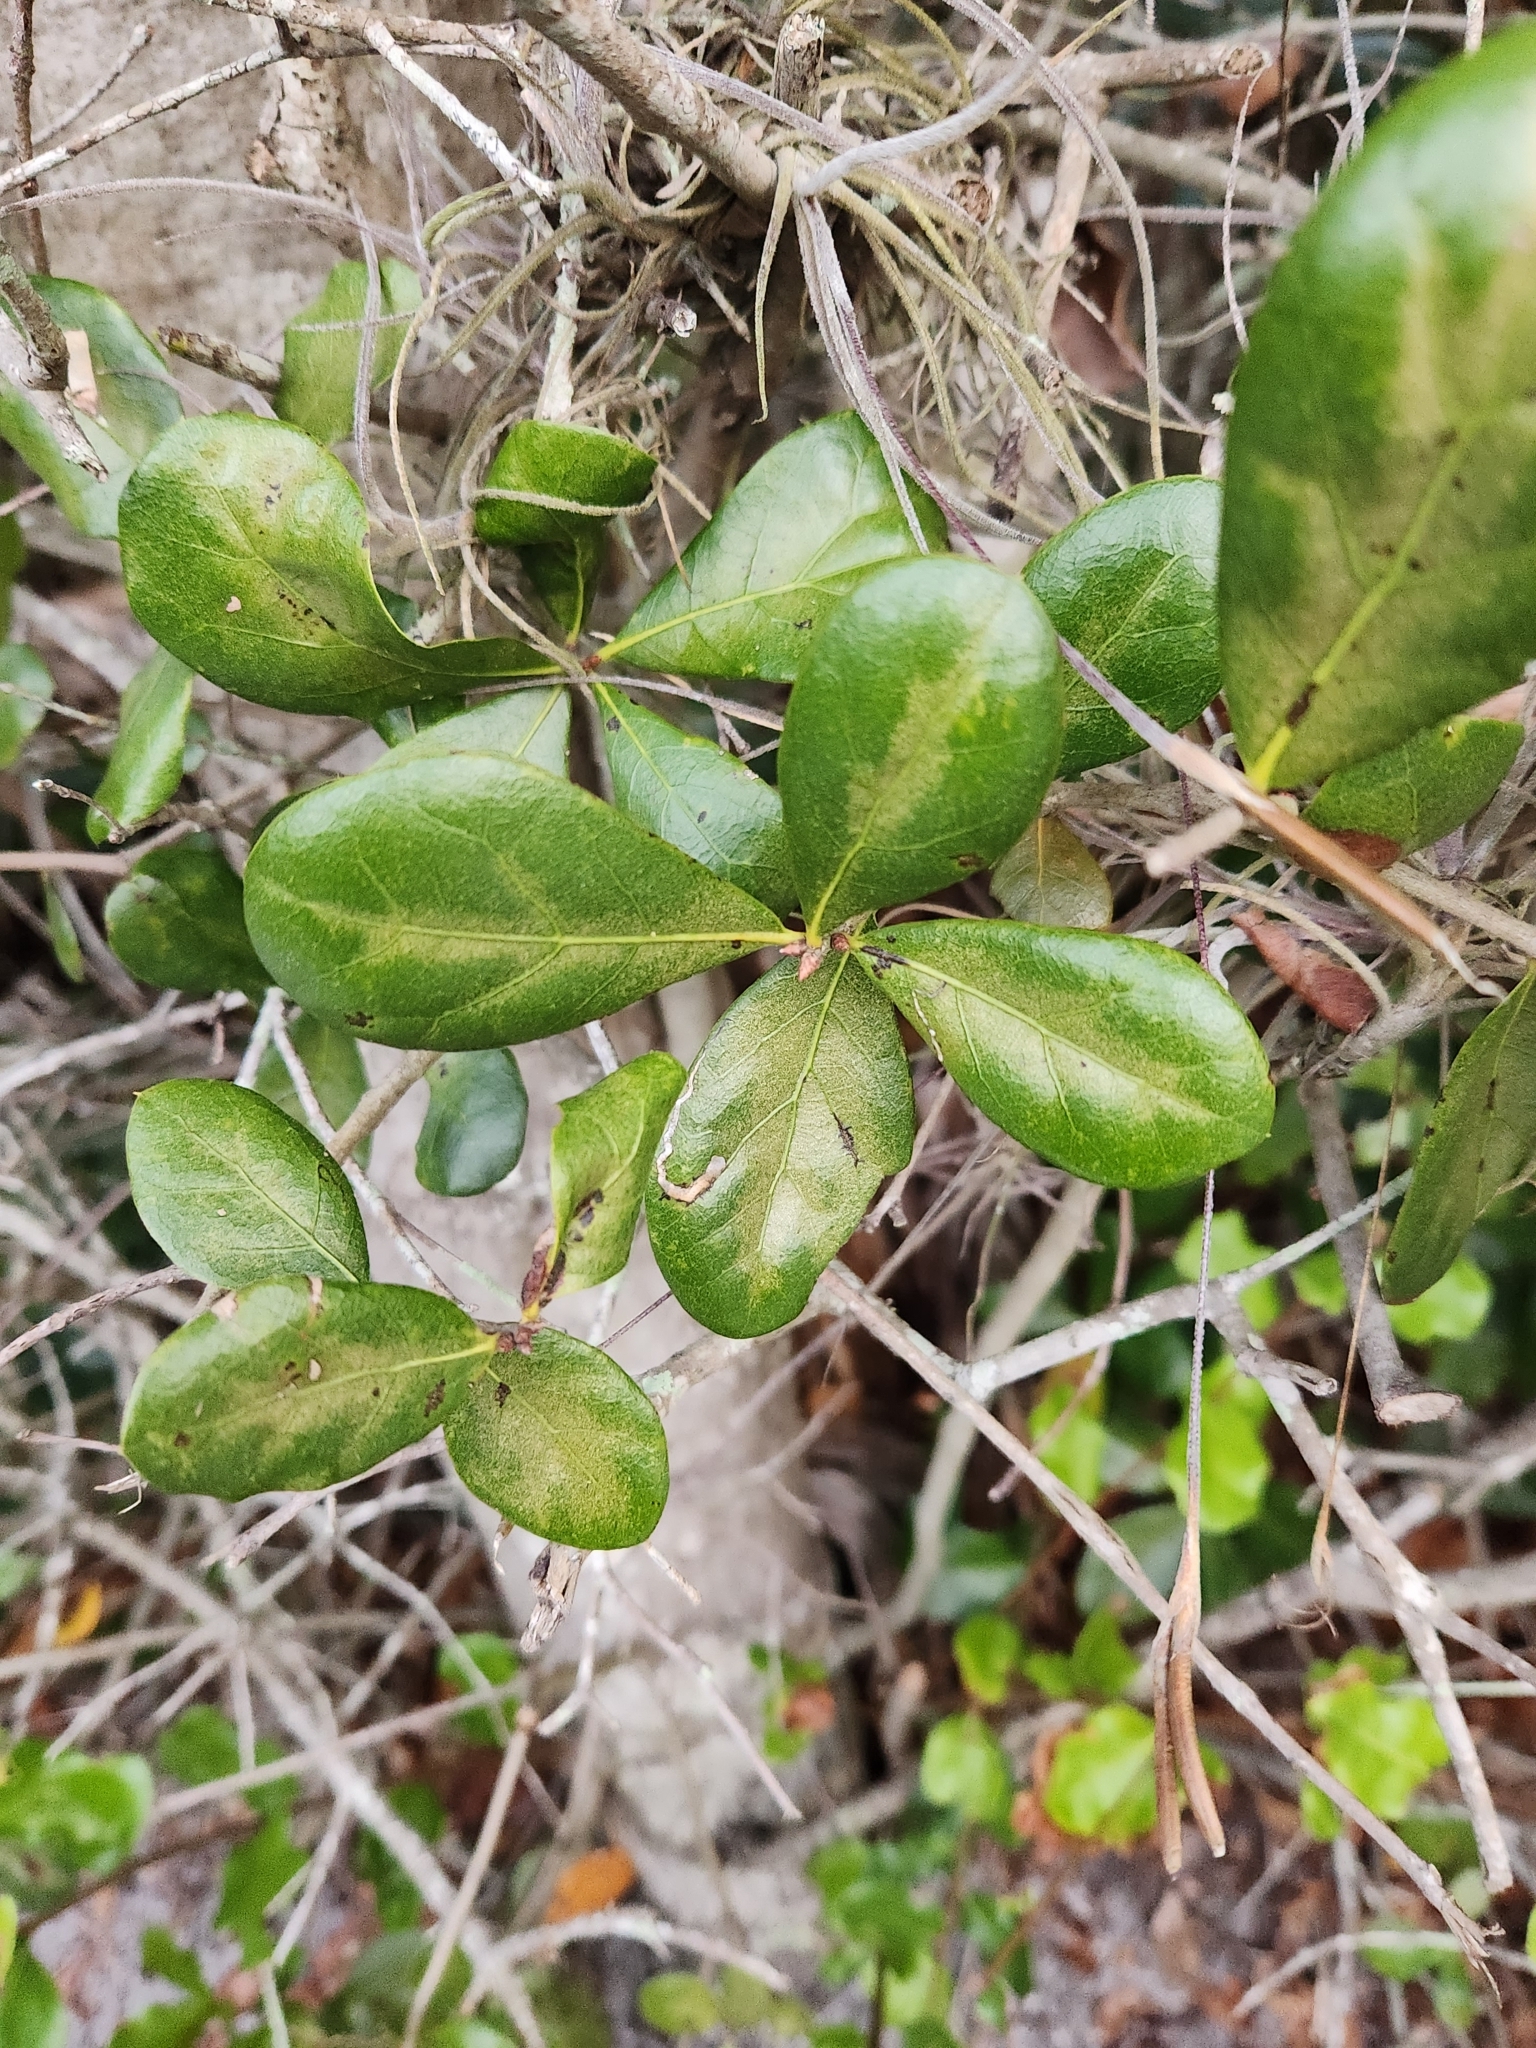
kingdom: Plantae
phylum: Tracheophyta
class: Magnoliopsida
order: Fagales
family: Fagaceae
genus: Quercus
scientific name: Quercus myrtifolia
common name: Myrtle oak
